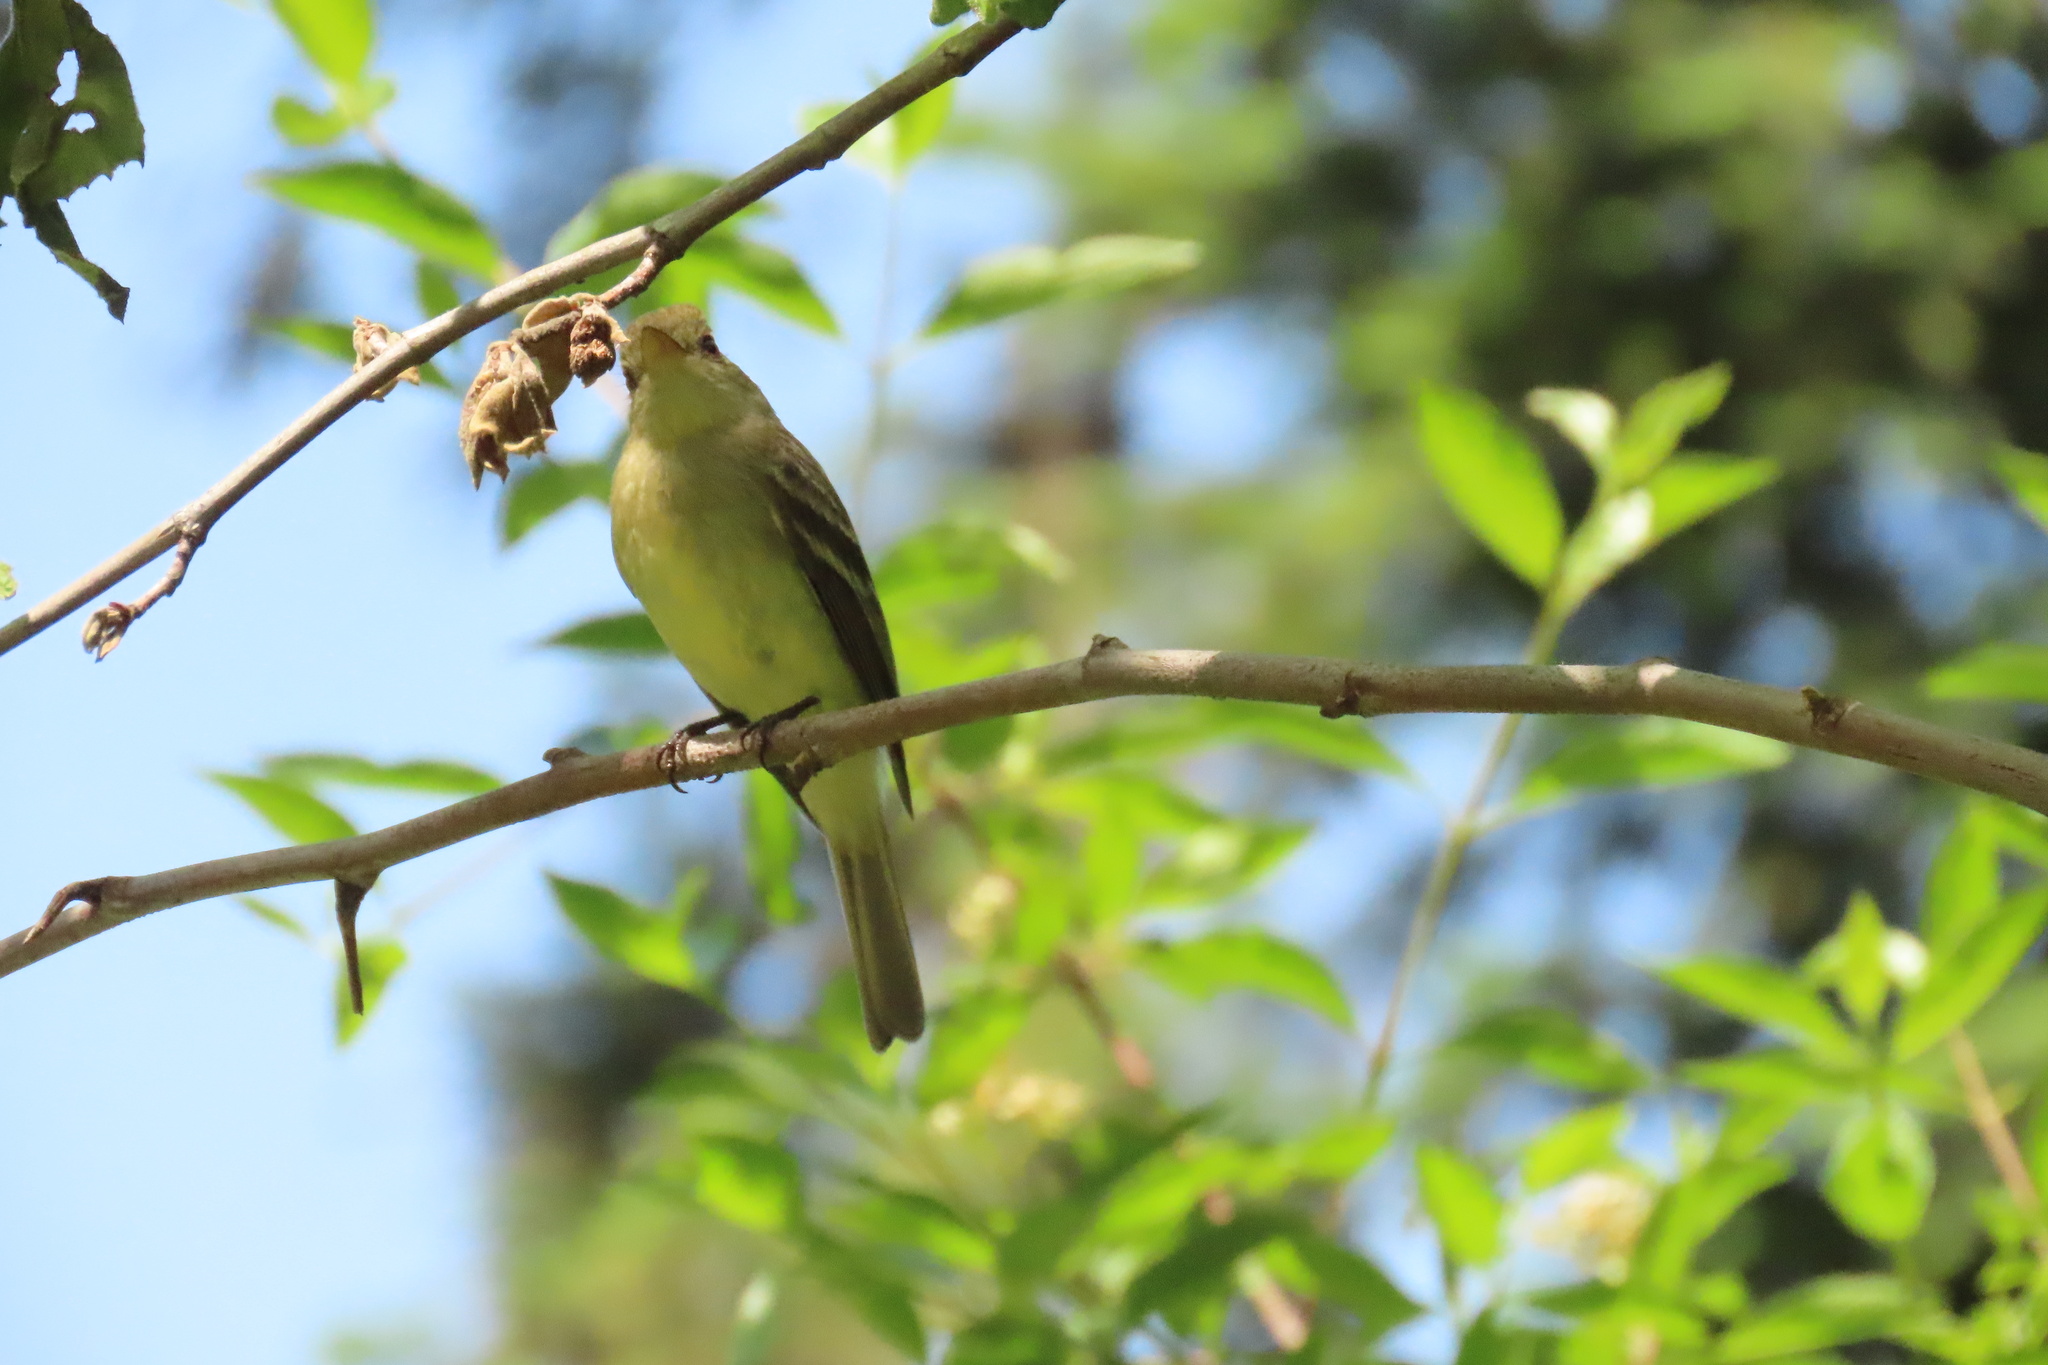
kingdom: Animalia
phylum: Chordata
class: Aves
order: Passeriformes
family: Tyrannidae
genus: Empidonax
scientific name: Empidonax difficilis
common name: Pacific-slope flycatcher
